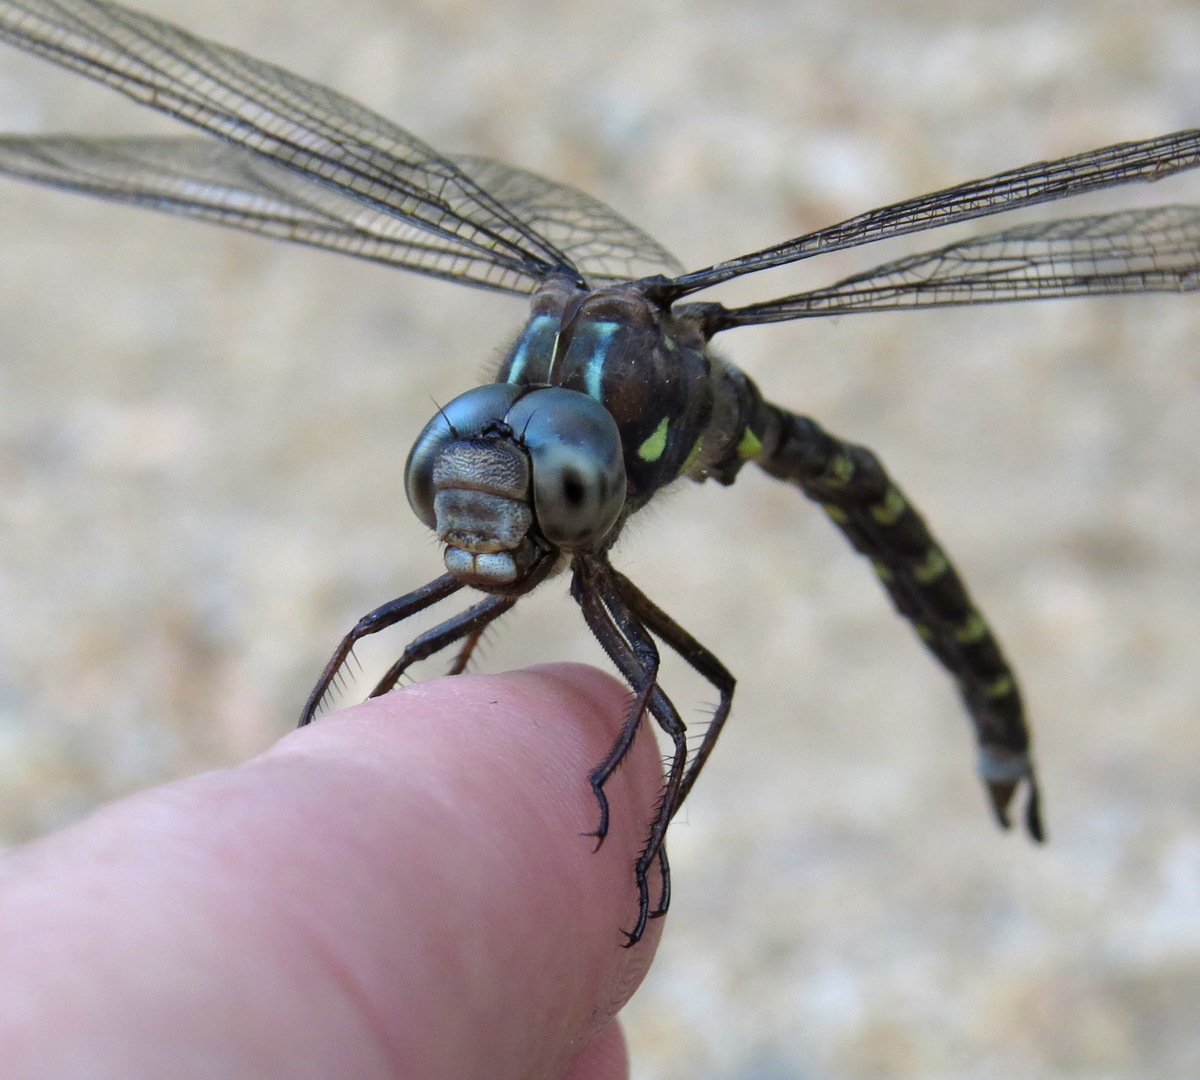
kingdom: Animalia
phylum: Arthropoda
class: Insecta
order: Odonata
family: Aeshnidae
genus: Boyeria
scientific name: Boyeria grafiana
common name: Ocellated darner
